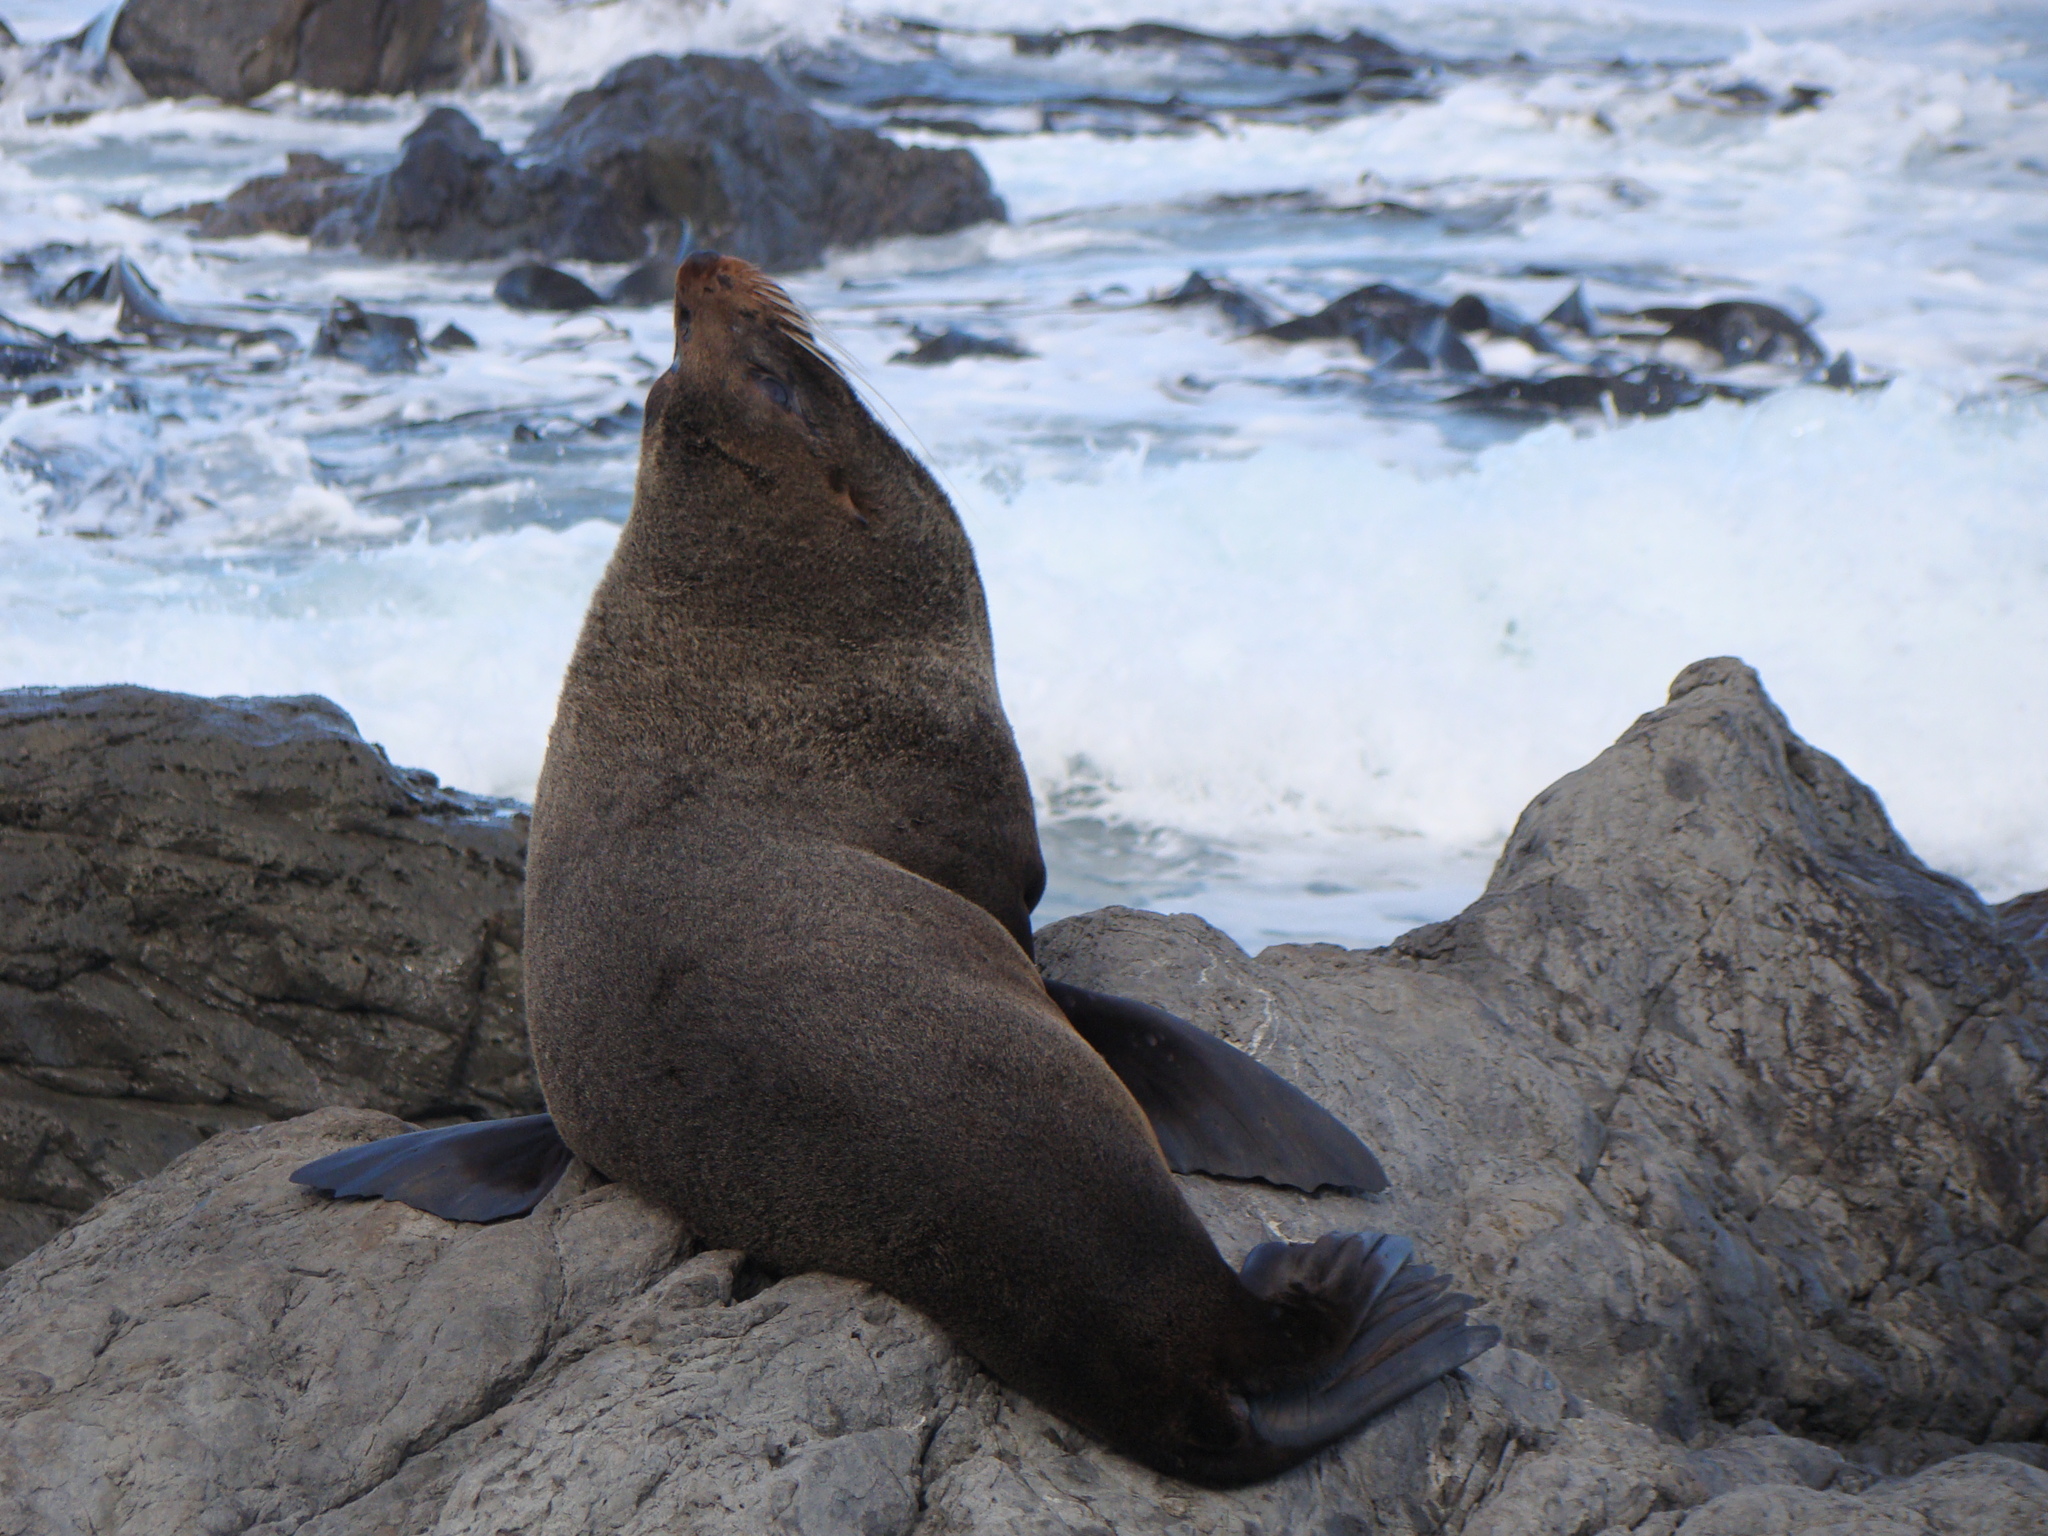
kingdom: Animalia
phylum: Chordata
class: Mammalia
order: Carnivora
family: Otariidae
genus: Arctocephalus
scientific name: Arctocephalus forsteri
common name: New zealand fur seal
